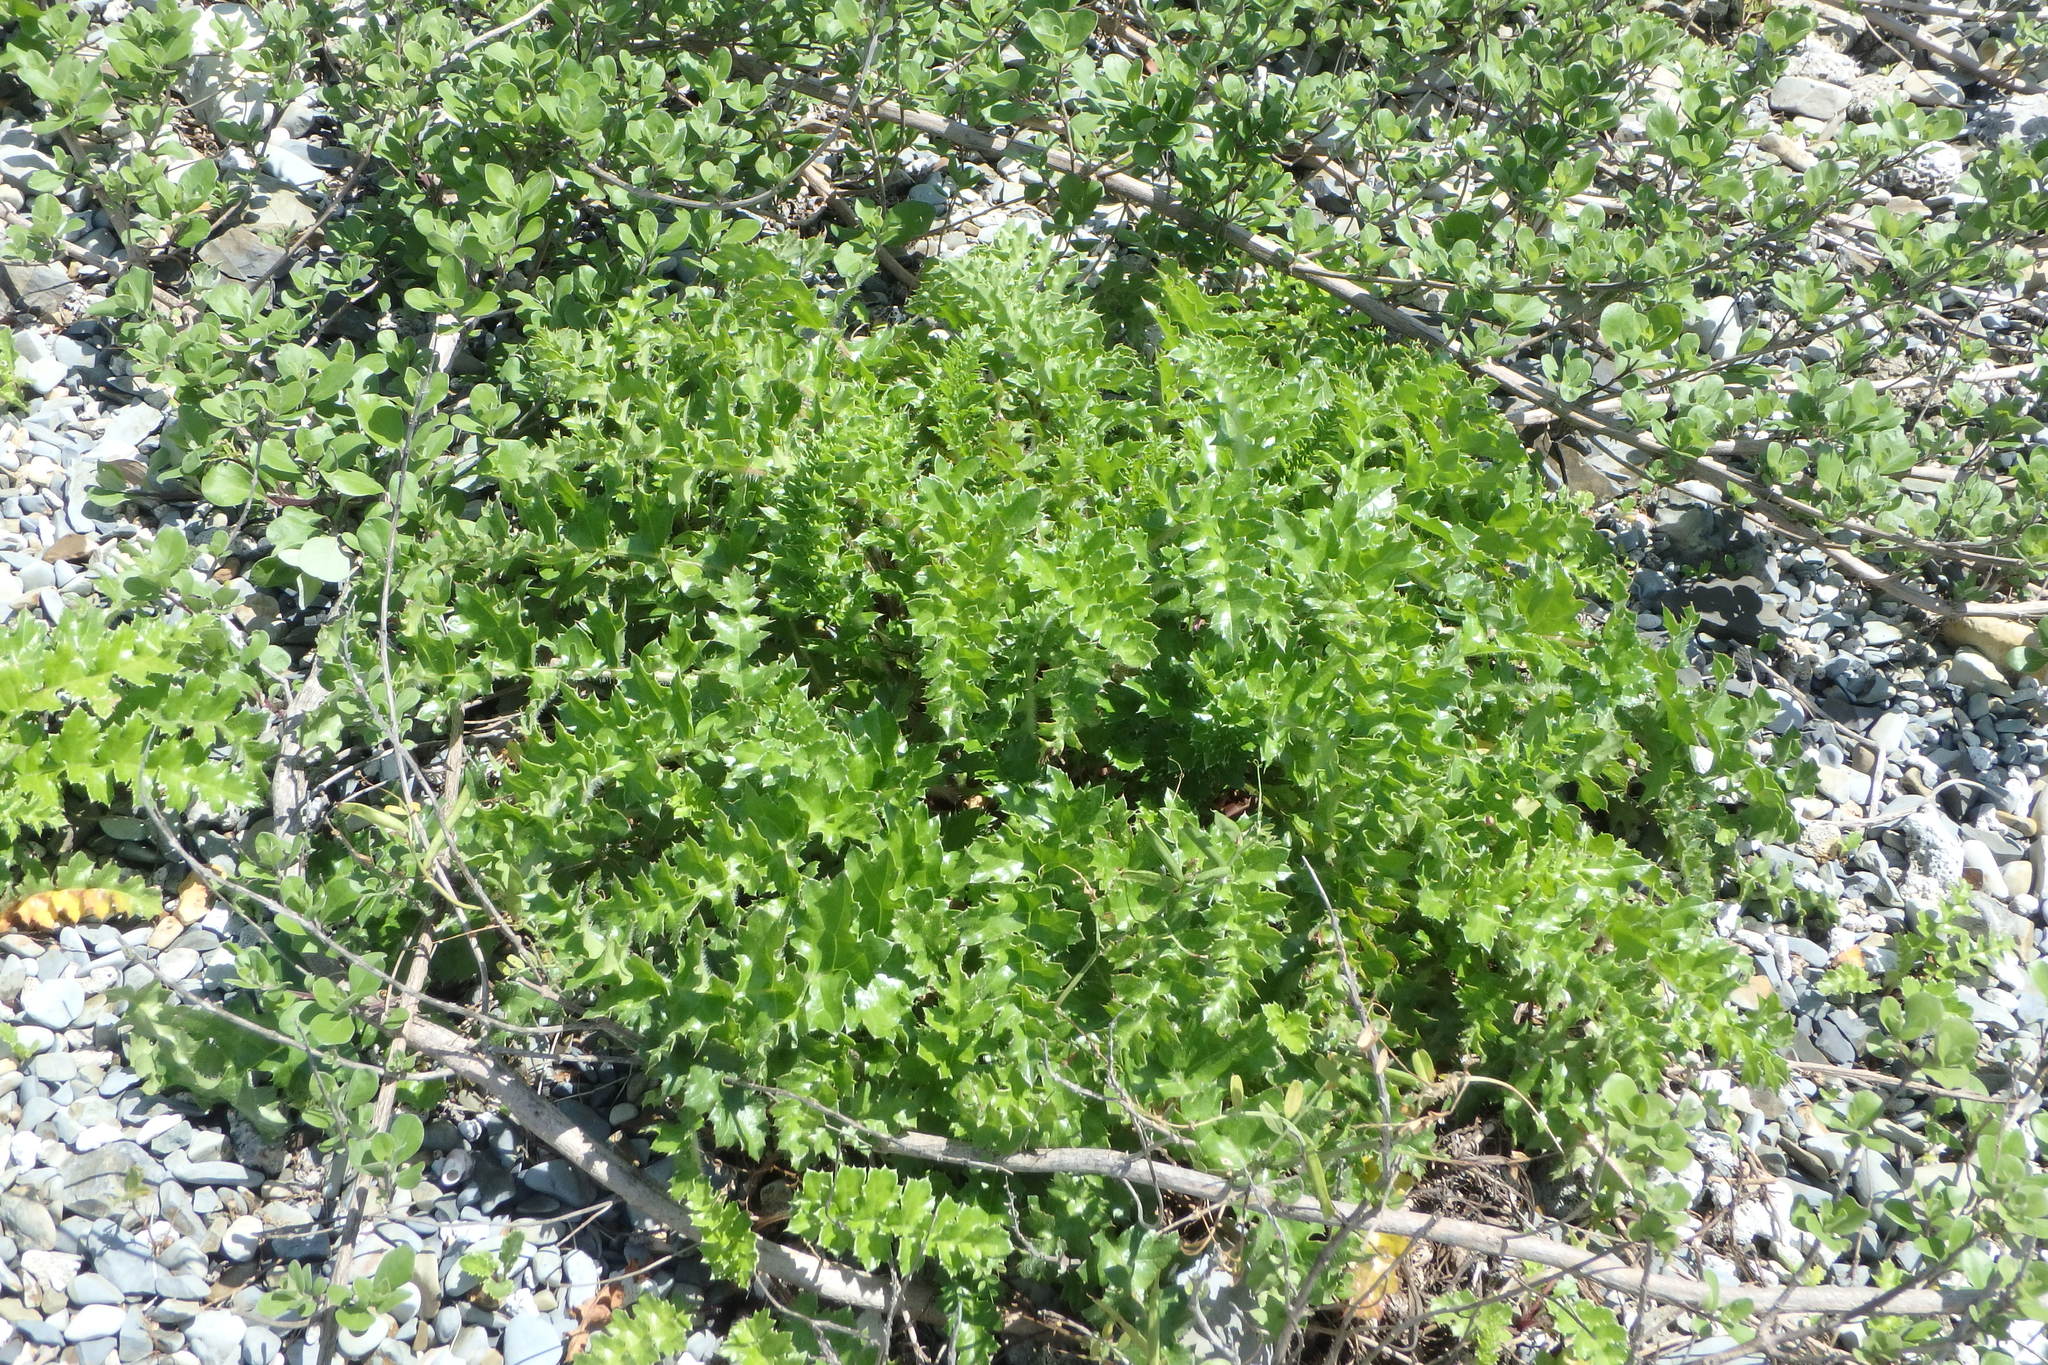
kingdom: Plantae
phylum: Tracheophyta
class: Magnoliopsida
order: Asterales
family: Asteraceae
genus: Cirsium
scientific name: Cirsium maritimum
